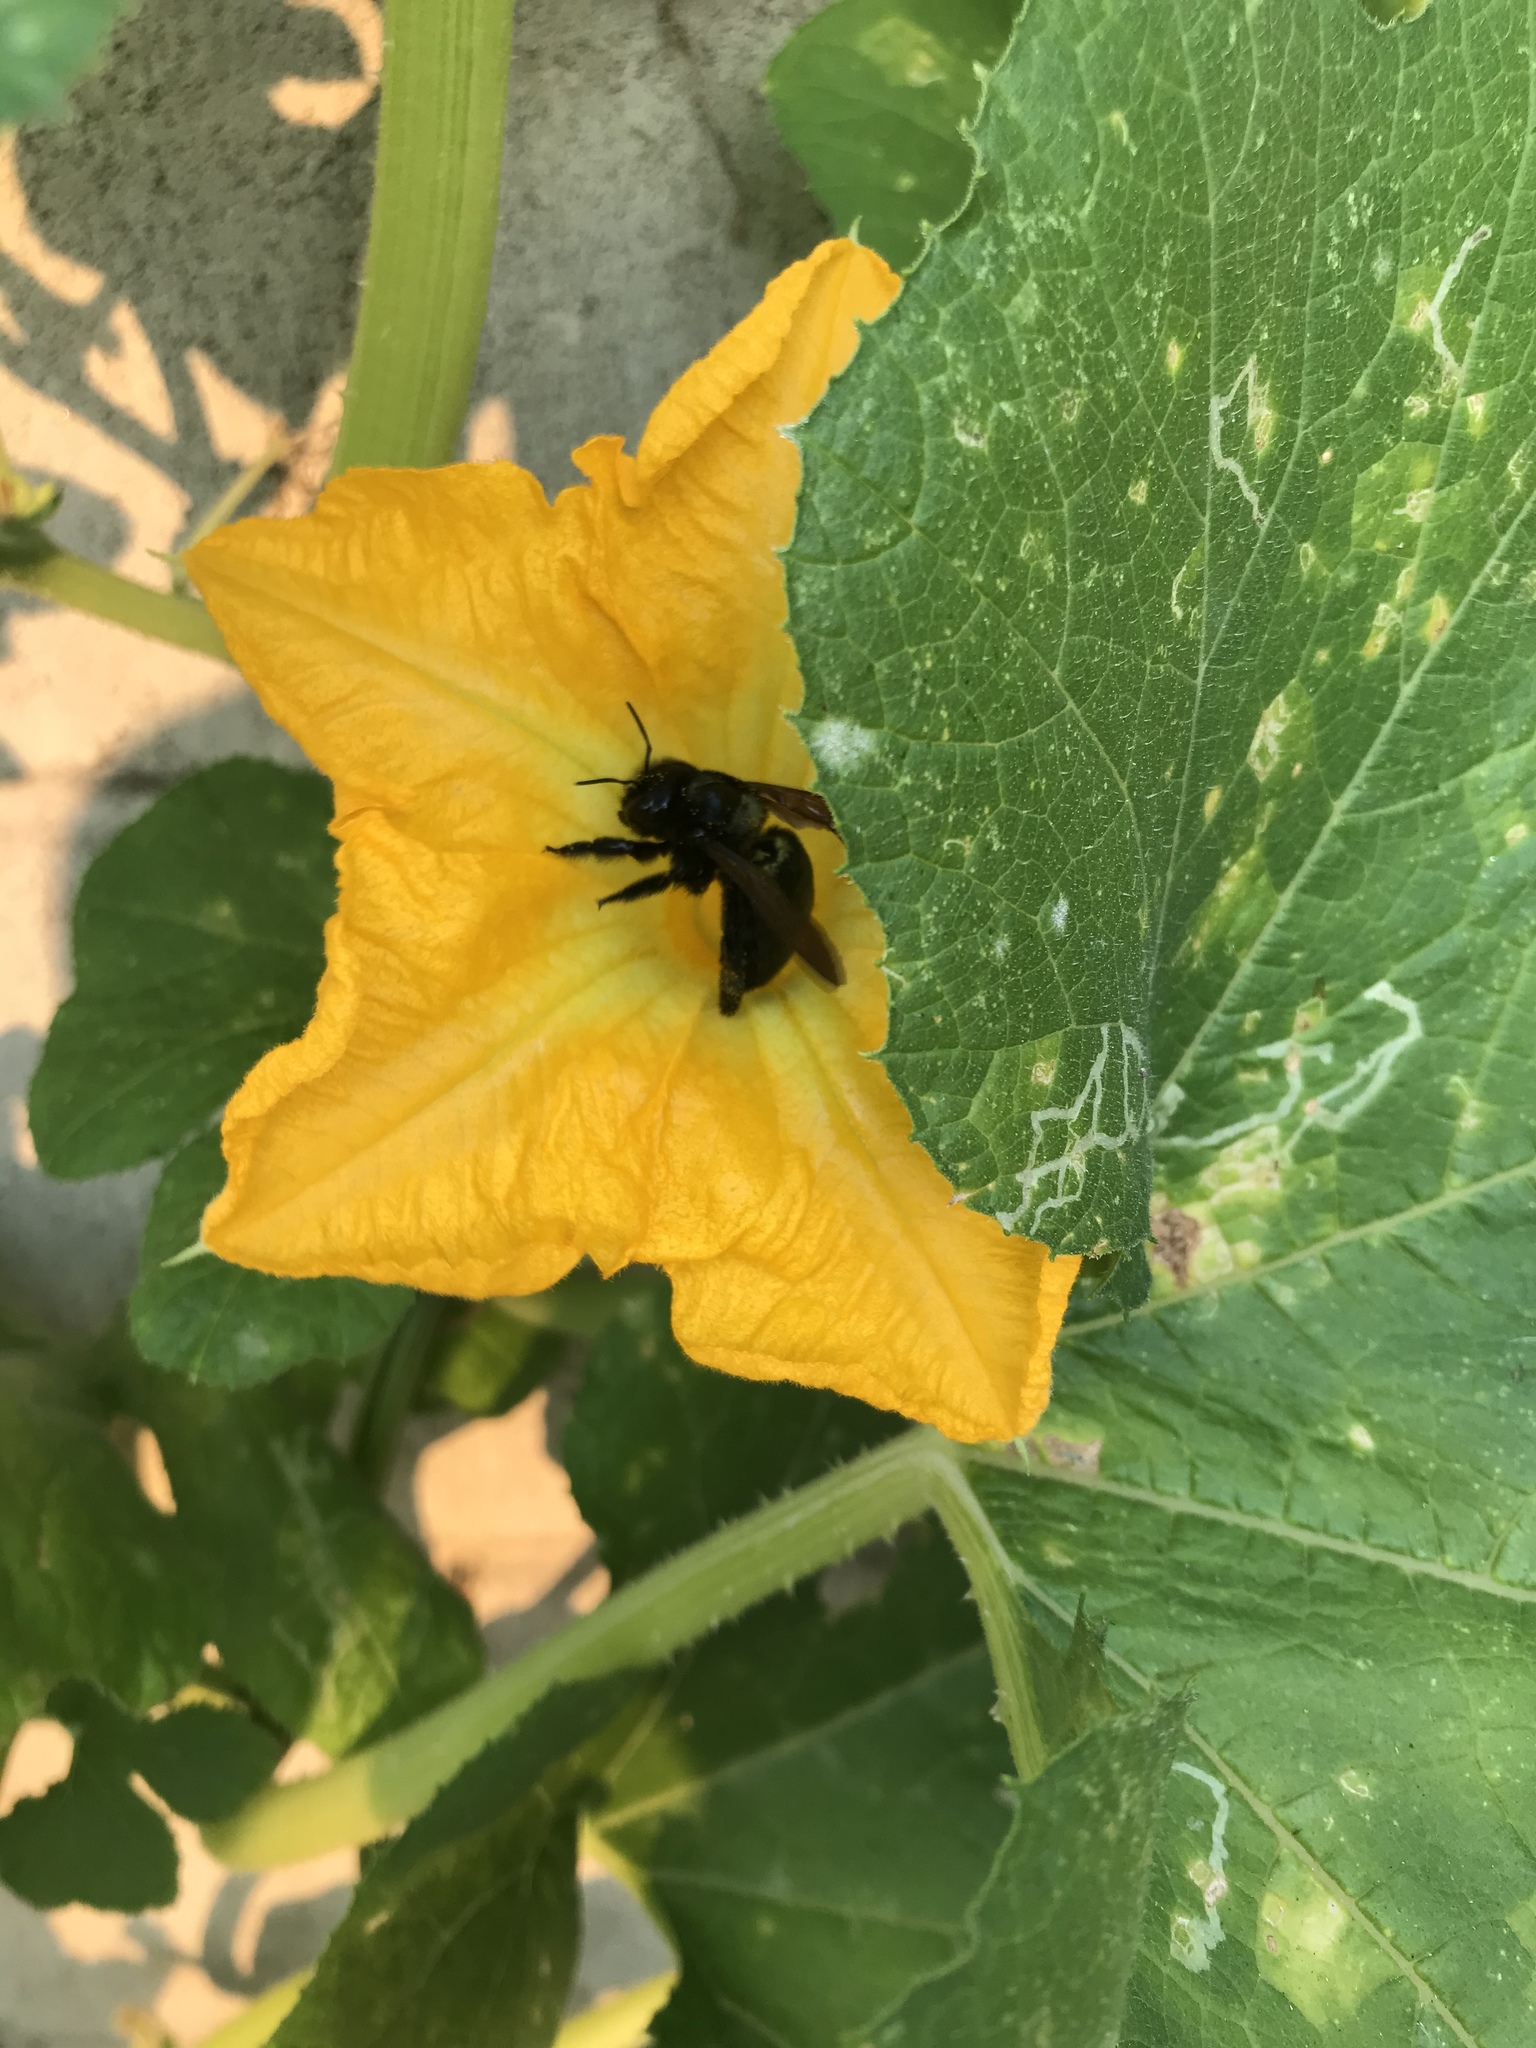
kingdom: Animalia
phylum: Arthropoda
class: Insecta
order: Hymenoptera
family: Apidae
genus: Xylocopa
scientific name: Xylocopa sonorina
